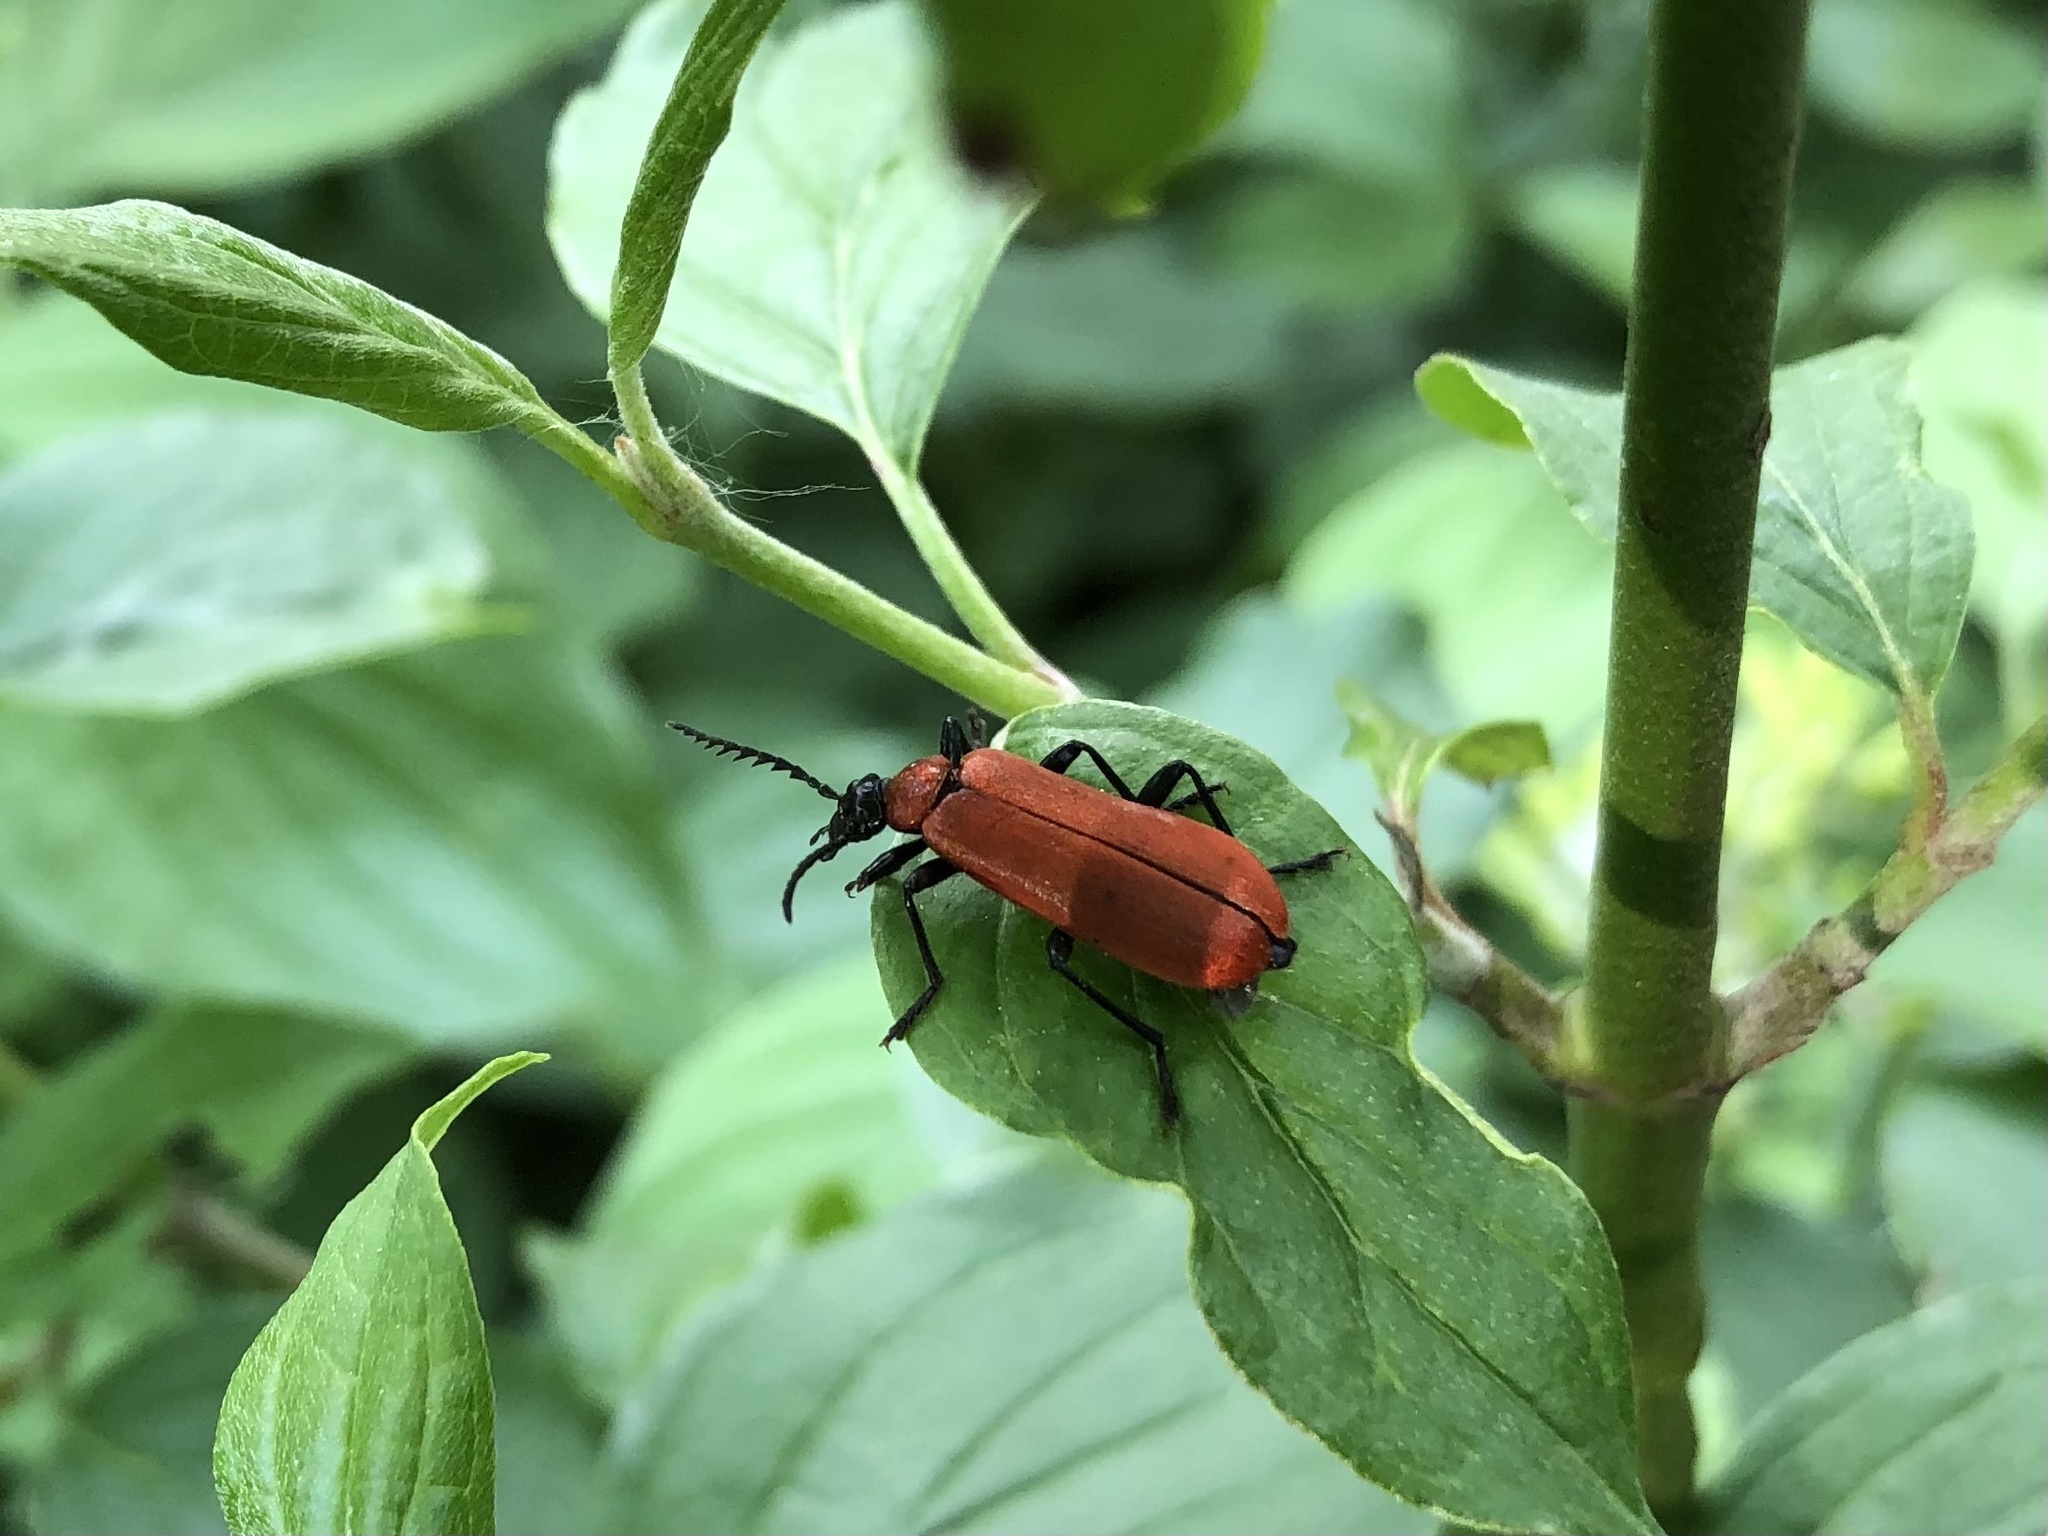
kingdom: Animalia
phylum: Arthropoda
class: Insecta
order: Coleoptera
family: Pyrochroidae
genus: Pyrochroa
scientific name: Pyrochroa coccinea
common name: Black-headed cardinal beetle
